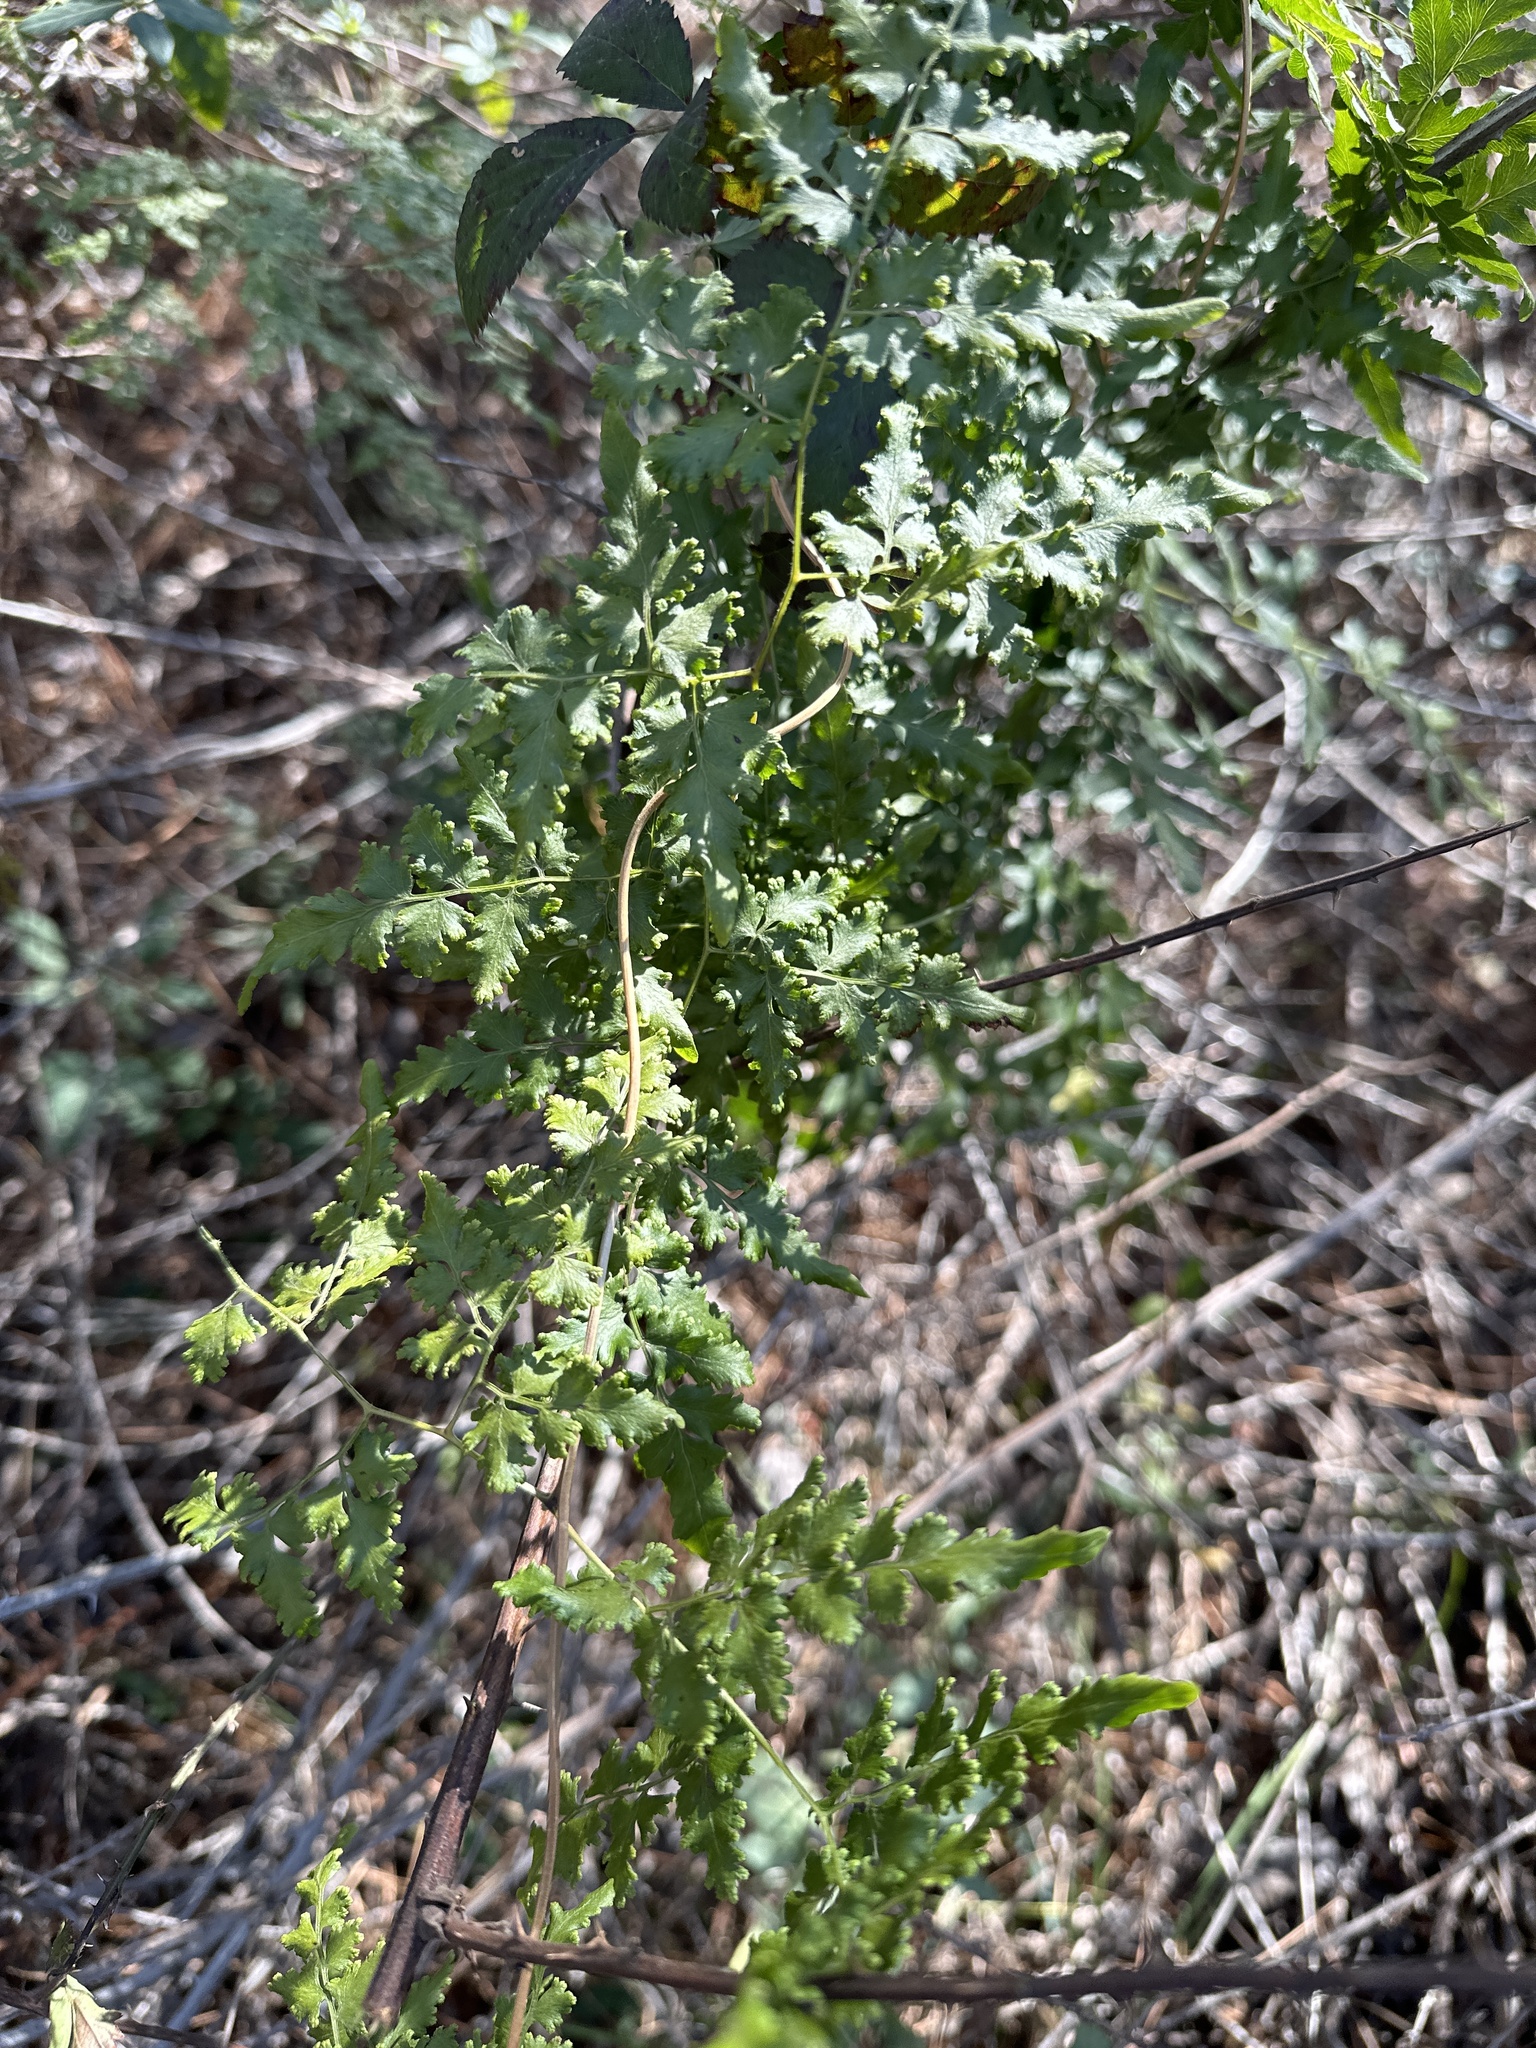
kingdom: Plantae
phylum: Tracheophyta
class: Polypodiopsida
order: Schizaeales
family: Lygodiaceae
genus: Lygodium
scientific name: Lygodium japonicum
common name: Japanese climbing fern
